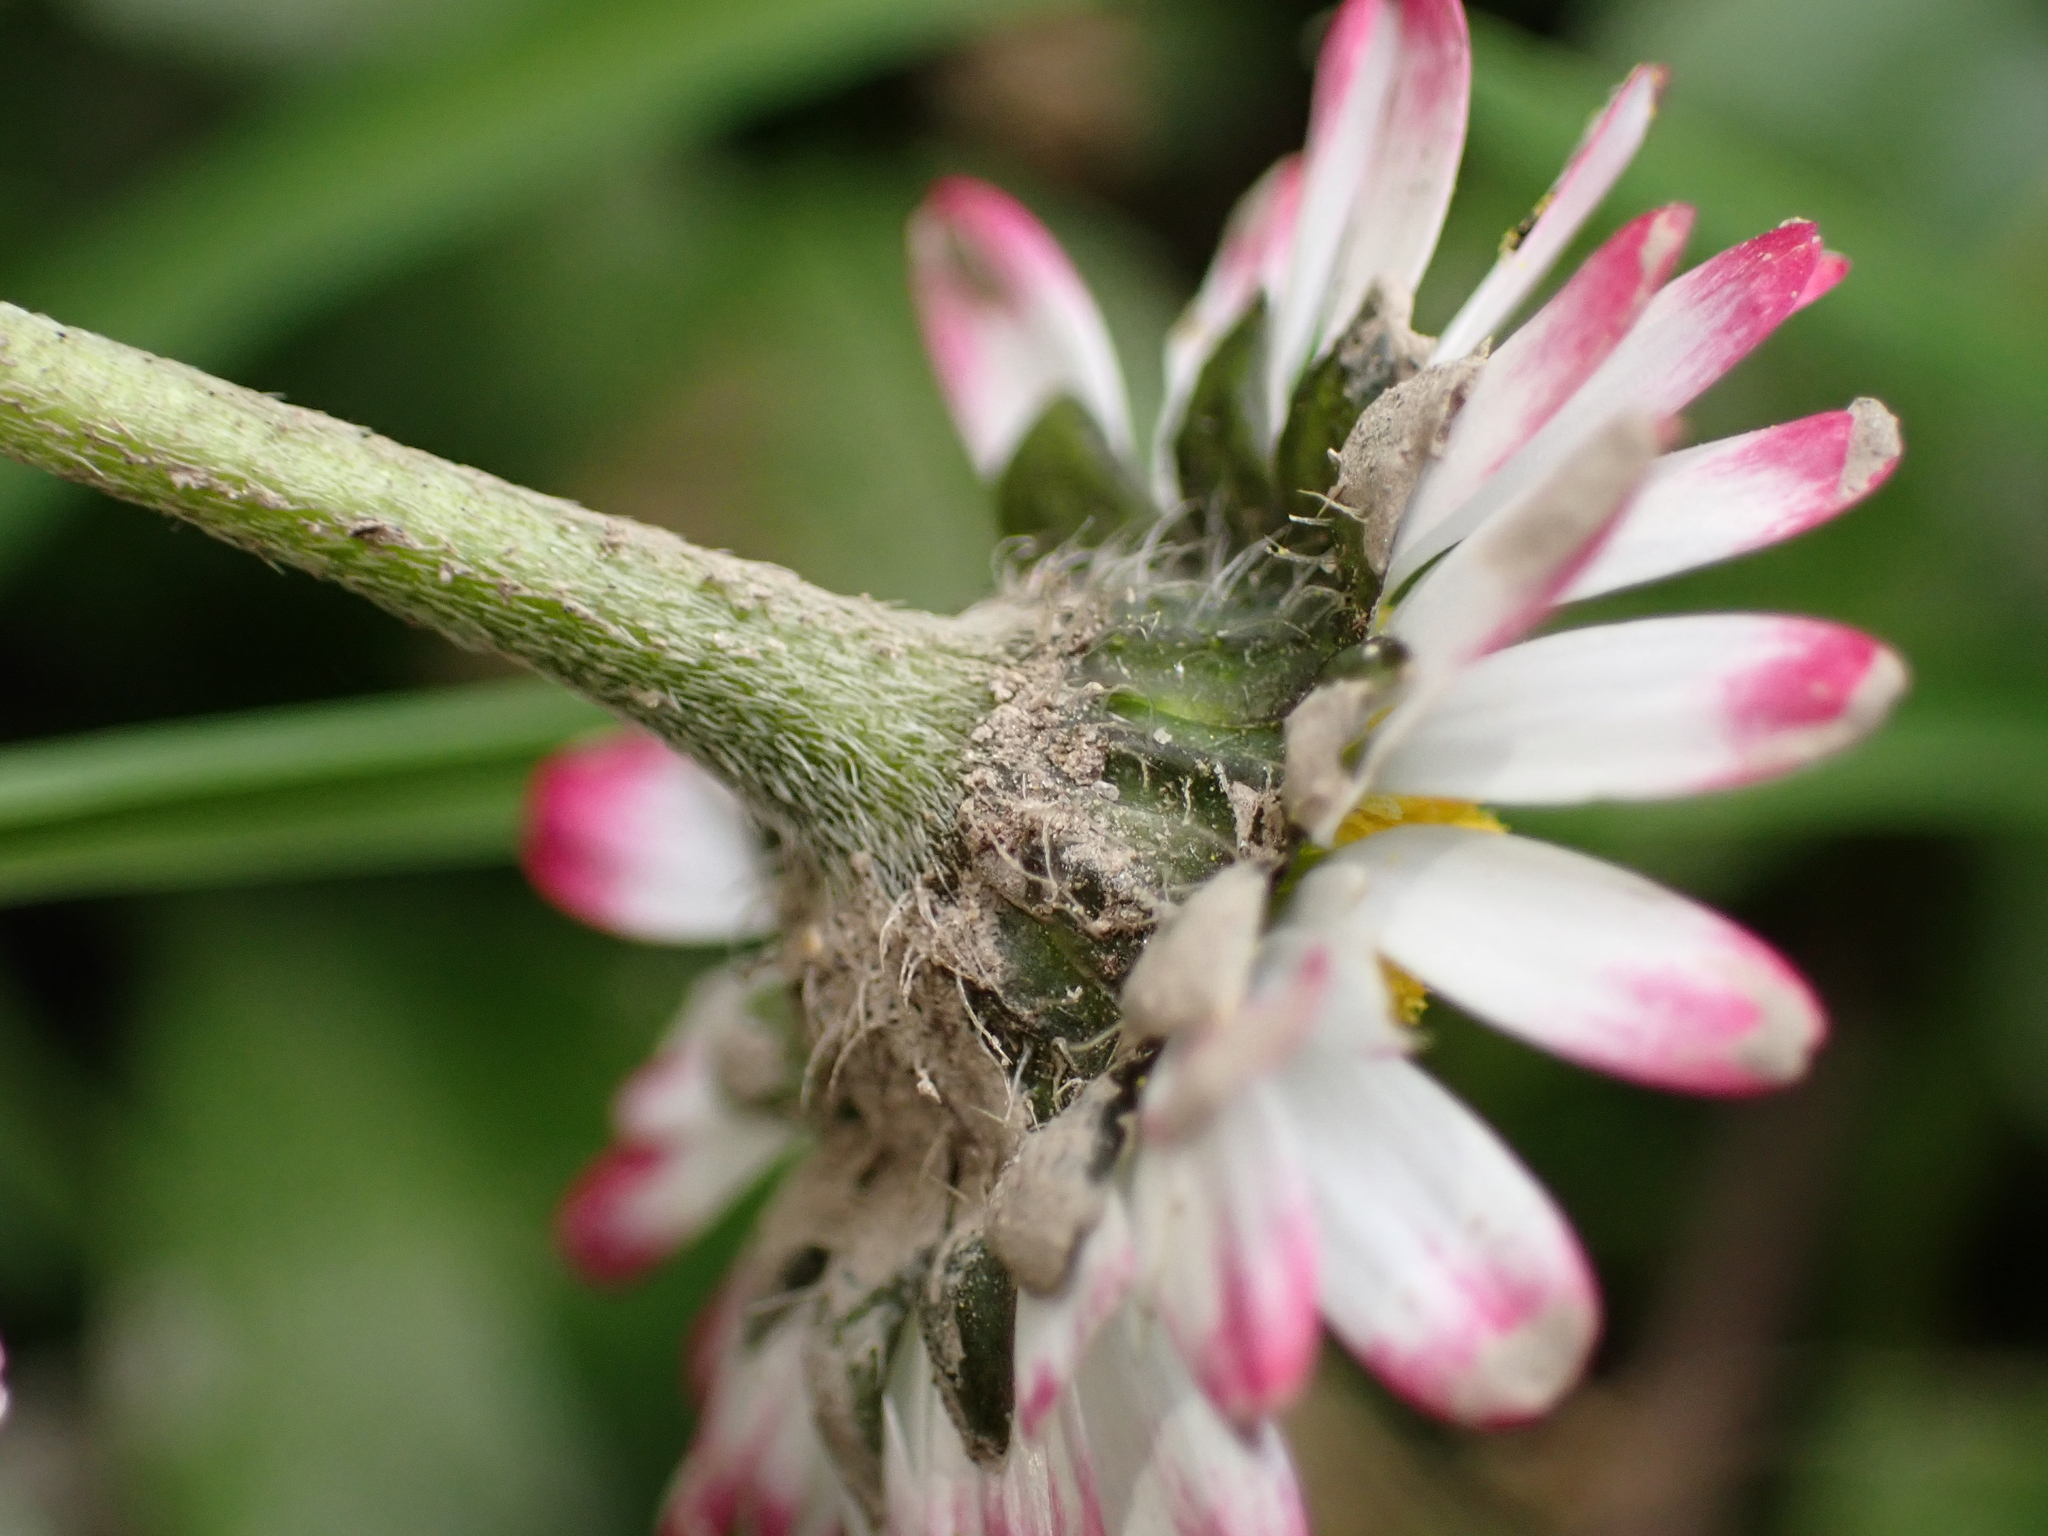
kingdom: Plantae
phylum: Tracheophyta
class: Magnoliopsida
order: Asterales
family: Asteraceae
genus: Bellis
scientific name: Bellis perennis
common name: Lawndaisy
